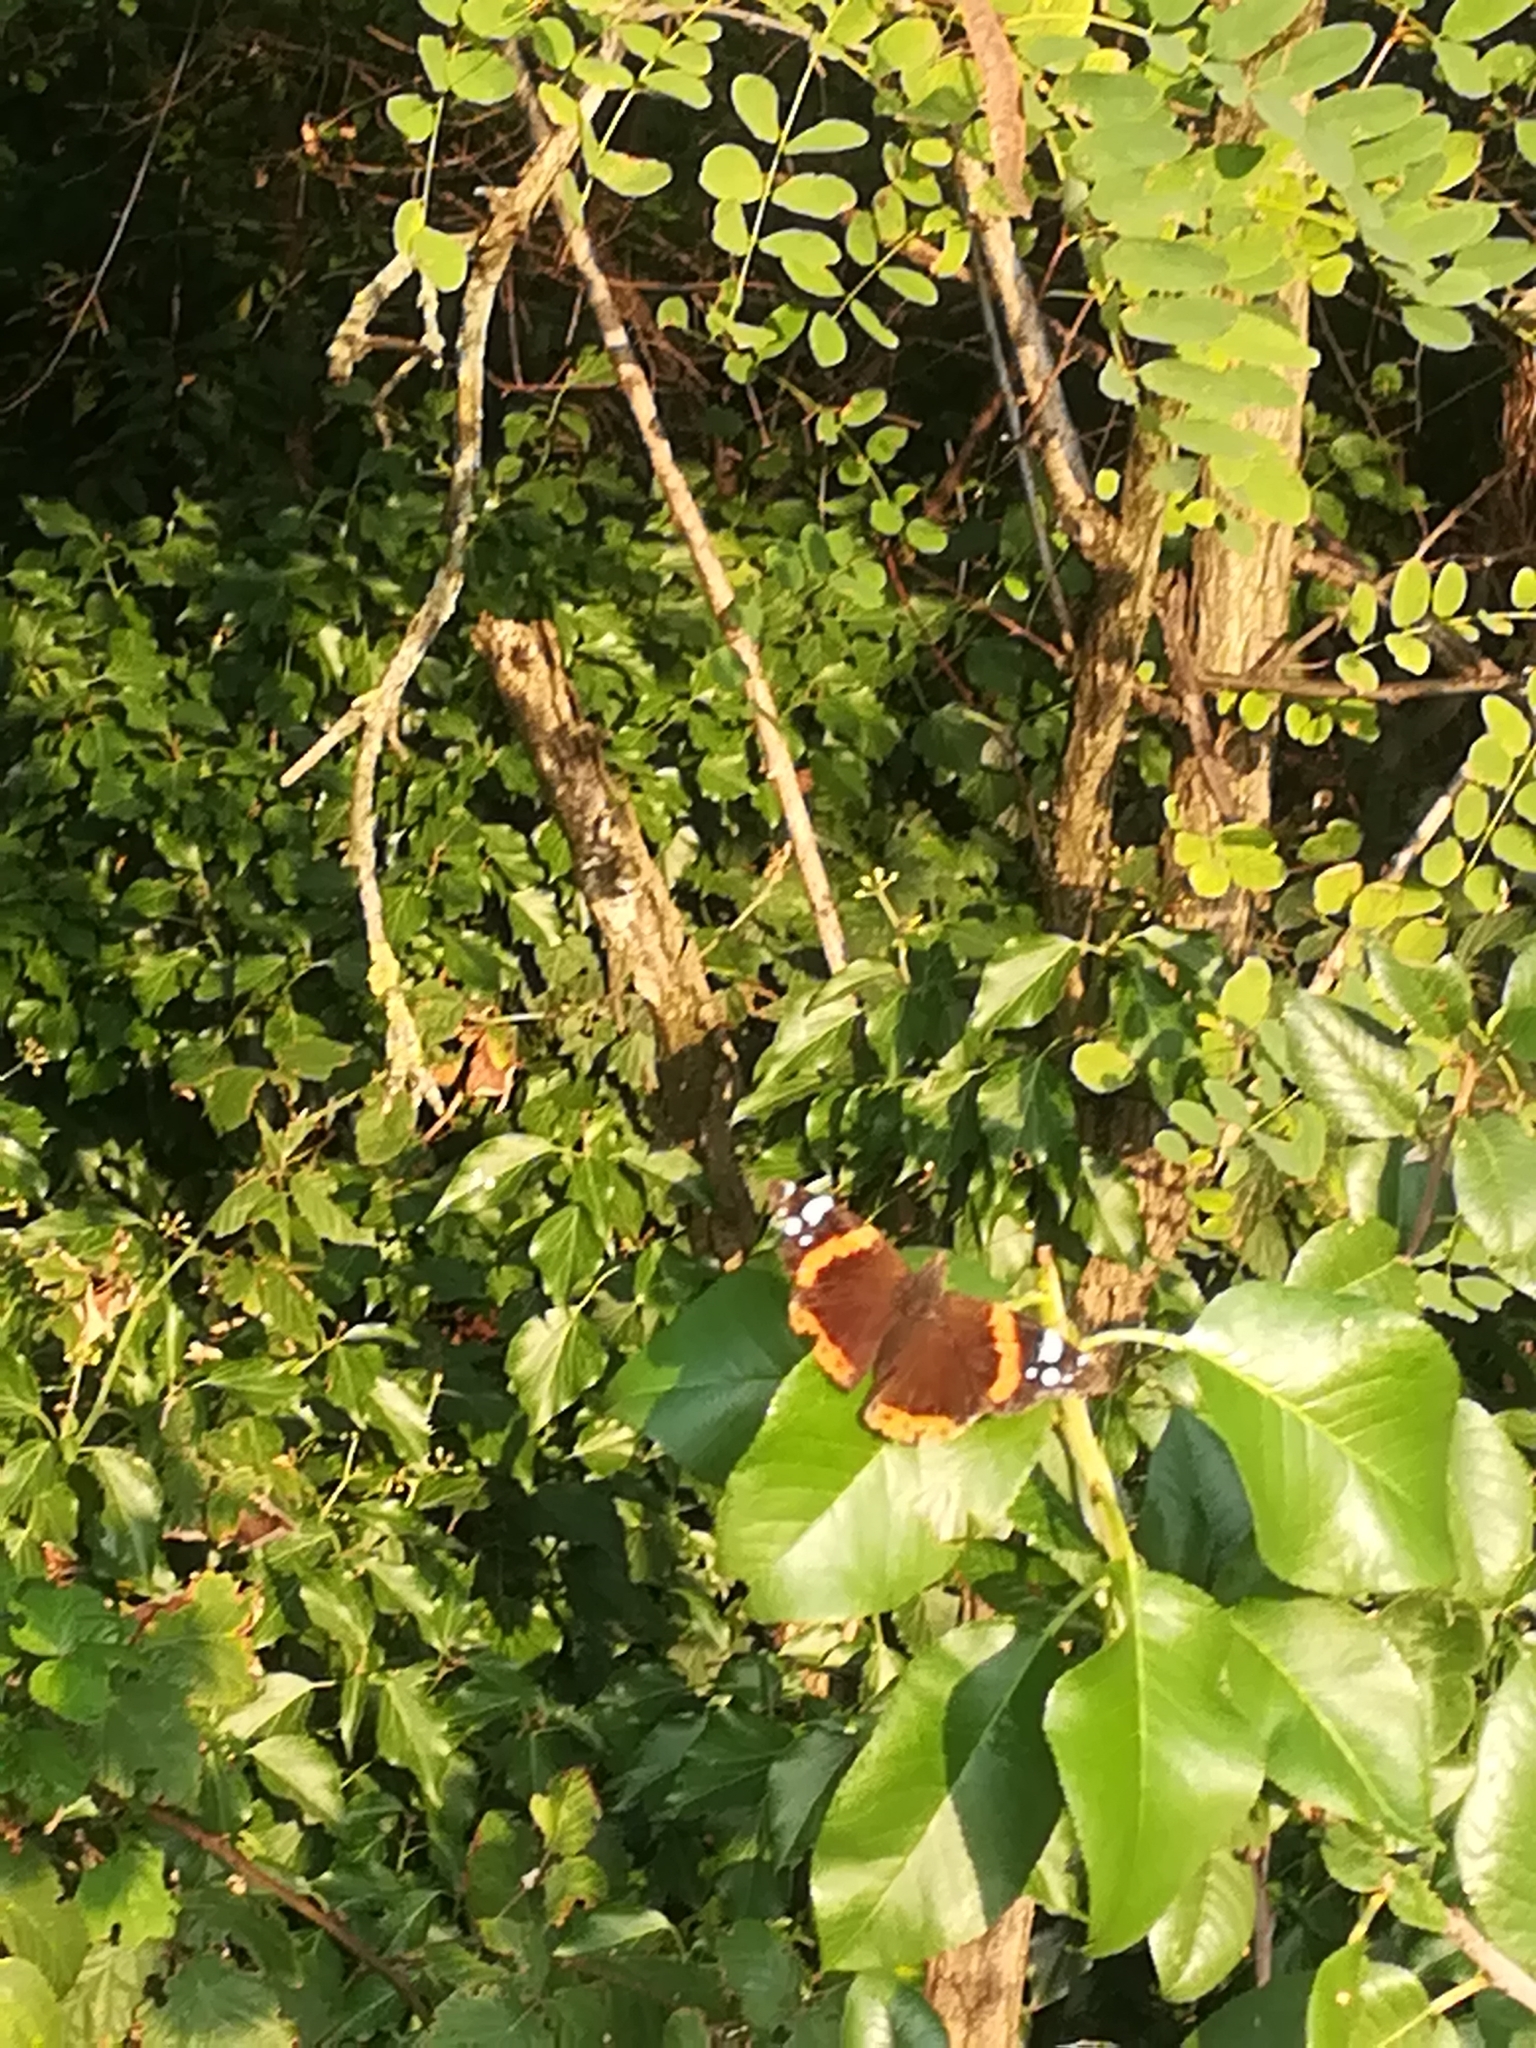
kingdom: Animalia
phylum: Arthropoda
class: Insecta
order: Lepidoptera
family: Nymphalidae
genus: Vanessa
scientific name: Vanessa atalanta
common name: Red admiral
